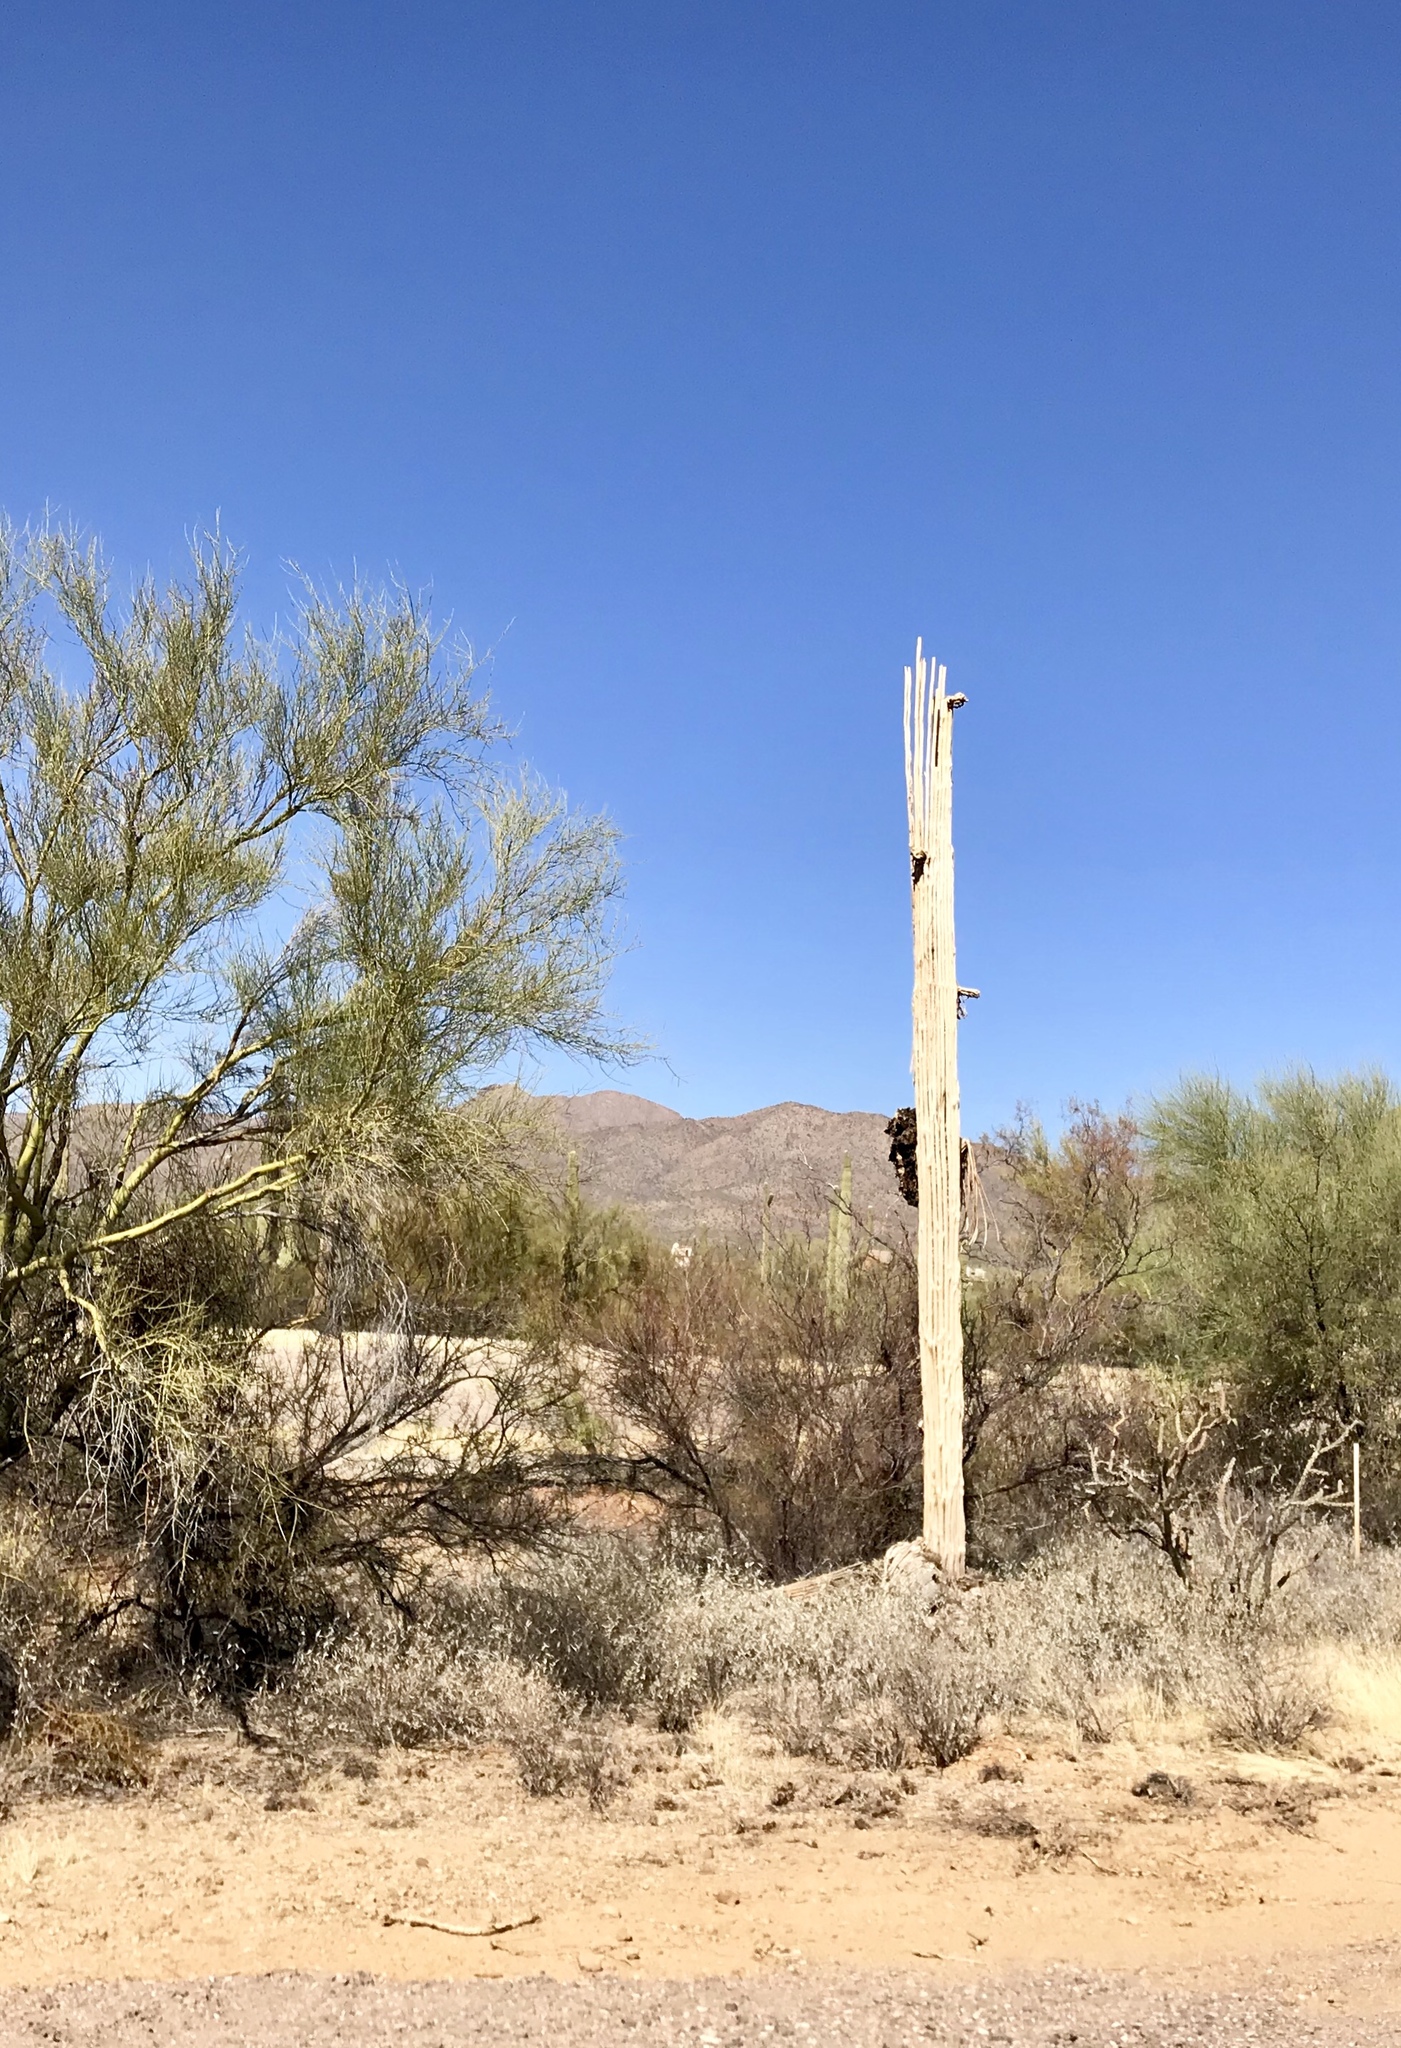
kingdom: Plantae
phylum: Tracheophyta
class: Magnoliopsida
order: Caryophyllales
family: Cactaceae
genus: Carnegiea
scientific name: Carnegiea gigantea
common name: Saguaro
